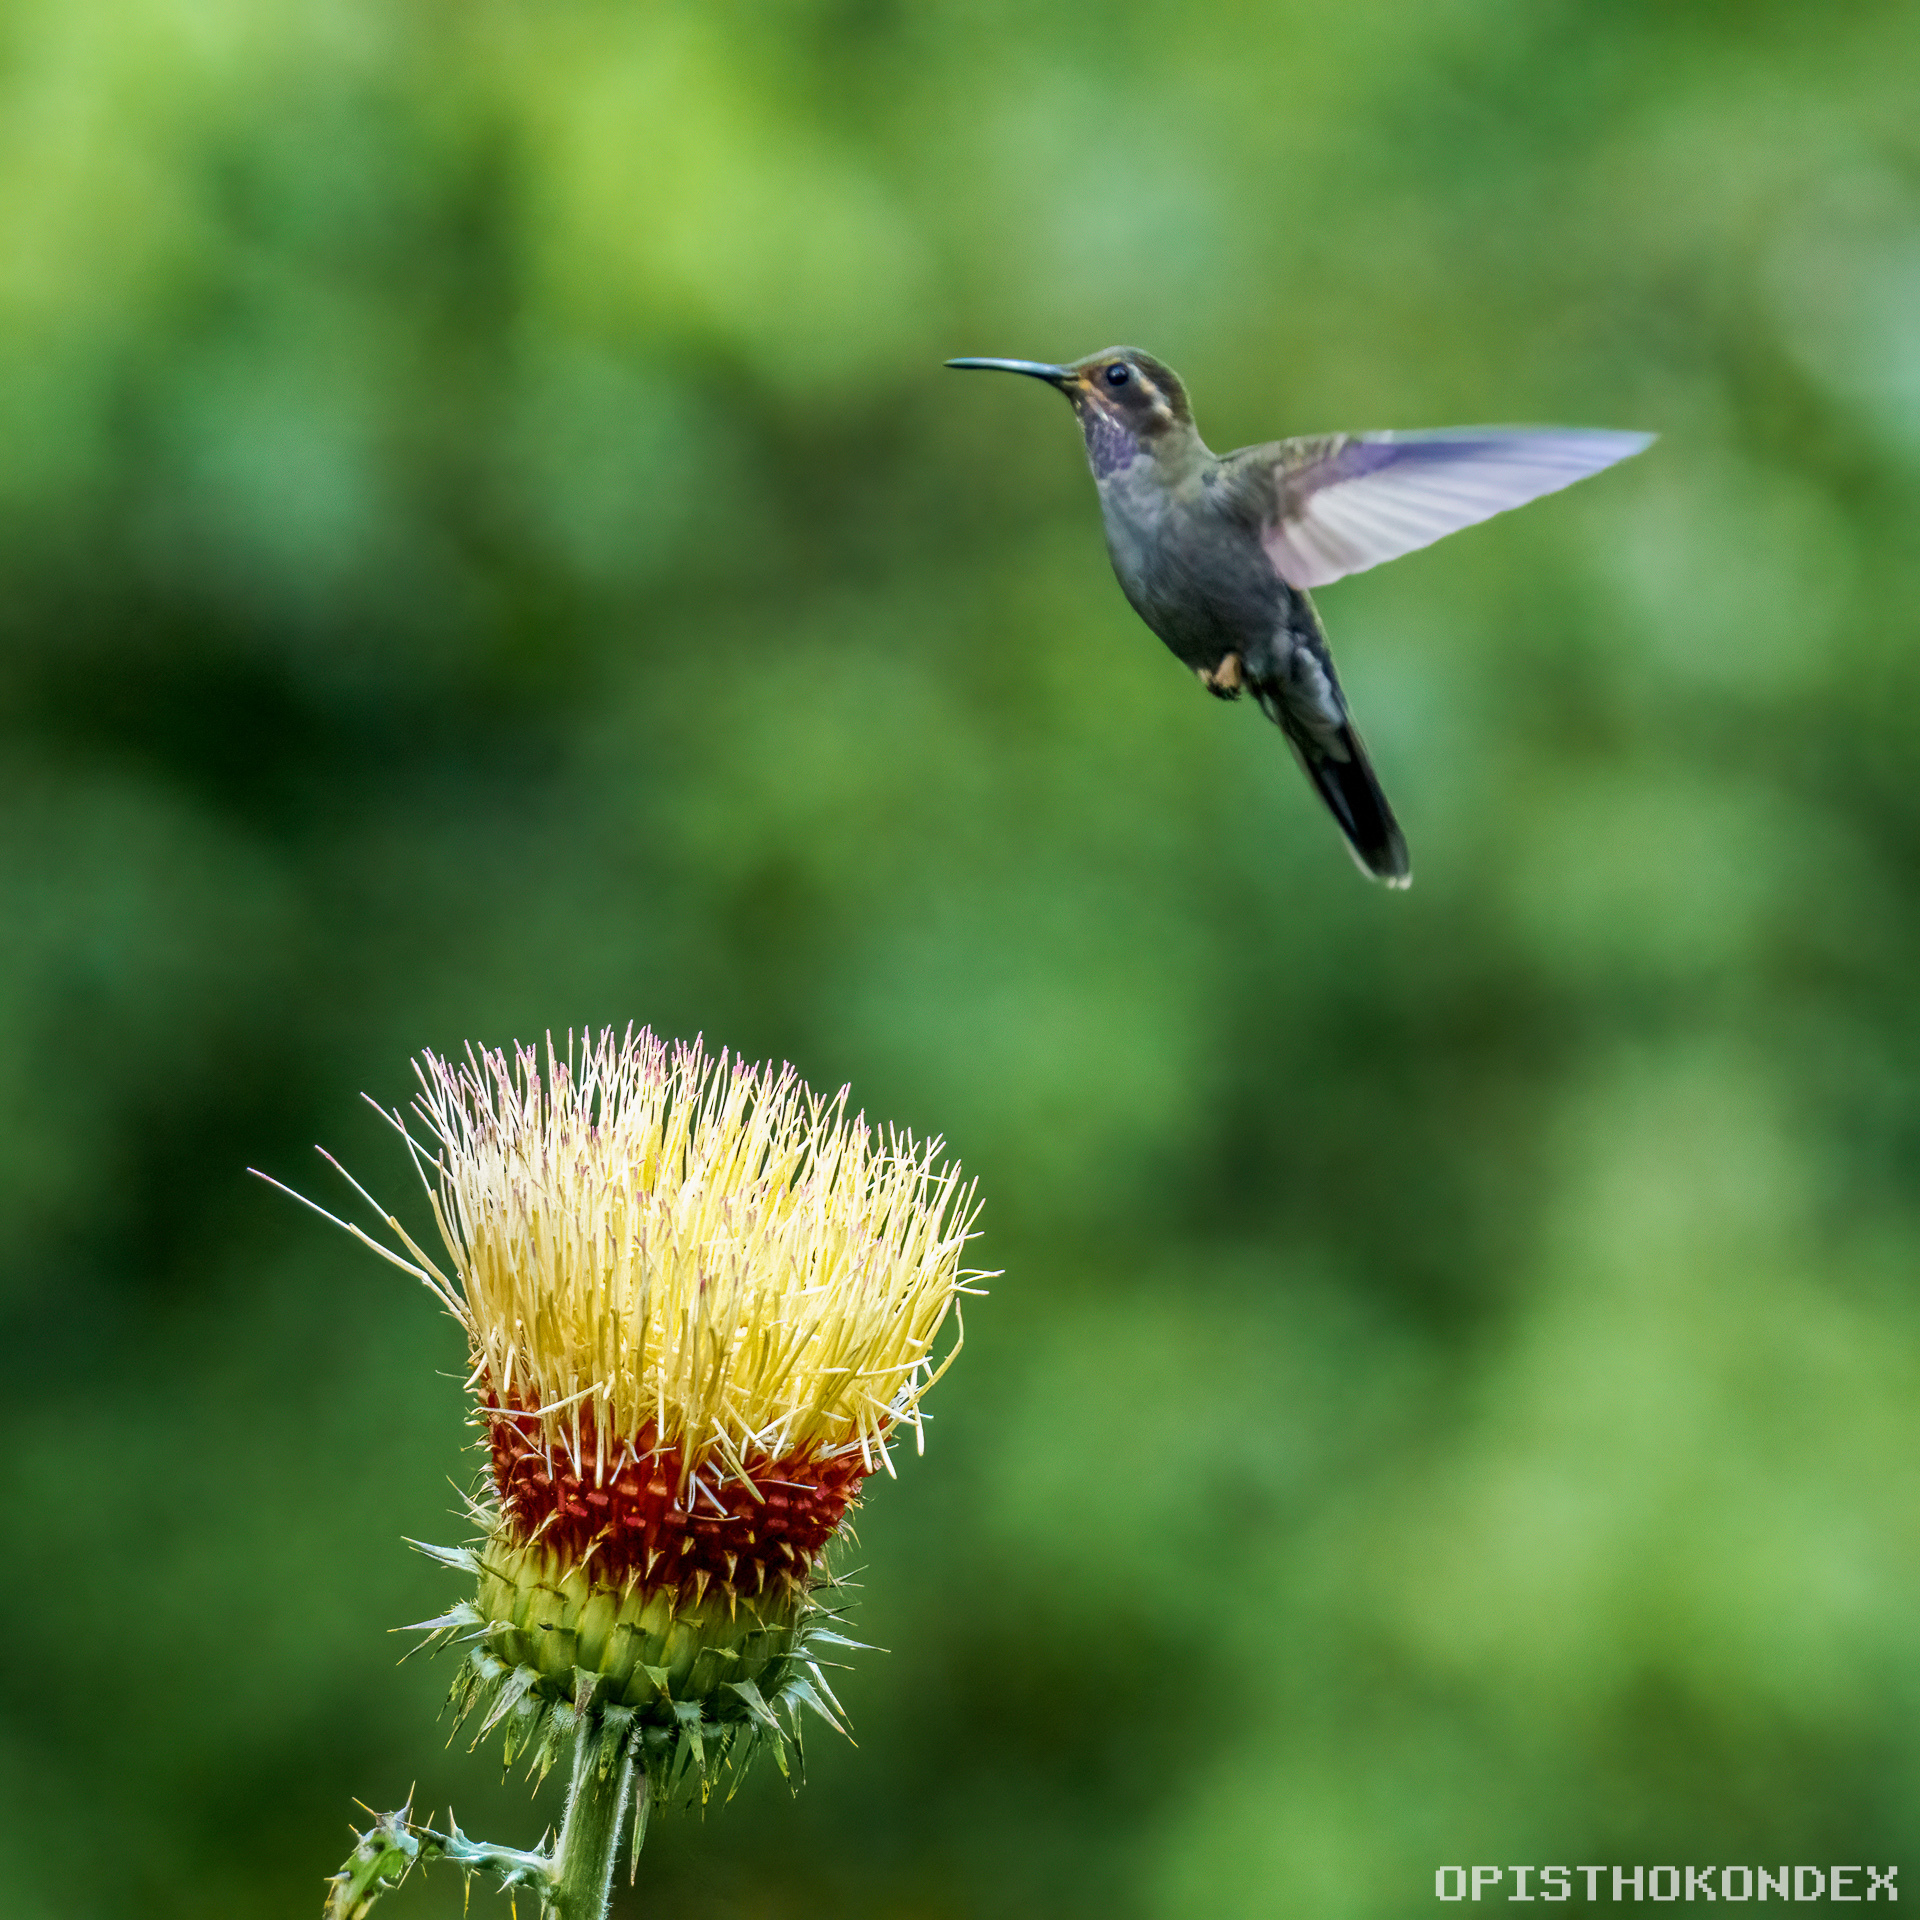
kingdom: Animalia
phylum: Chordata
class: Aves
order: Apodiformes
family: Trochilidae
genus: Lampornis
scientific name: Lampornis amethystinus
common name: Amethyst-throated mountaingem
